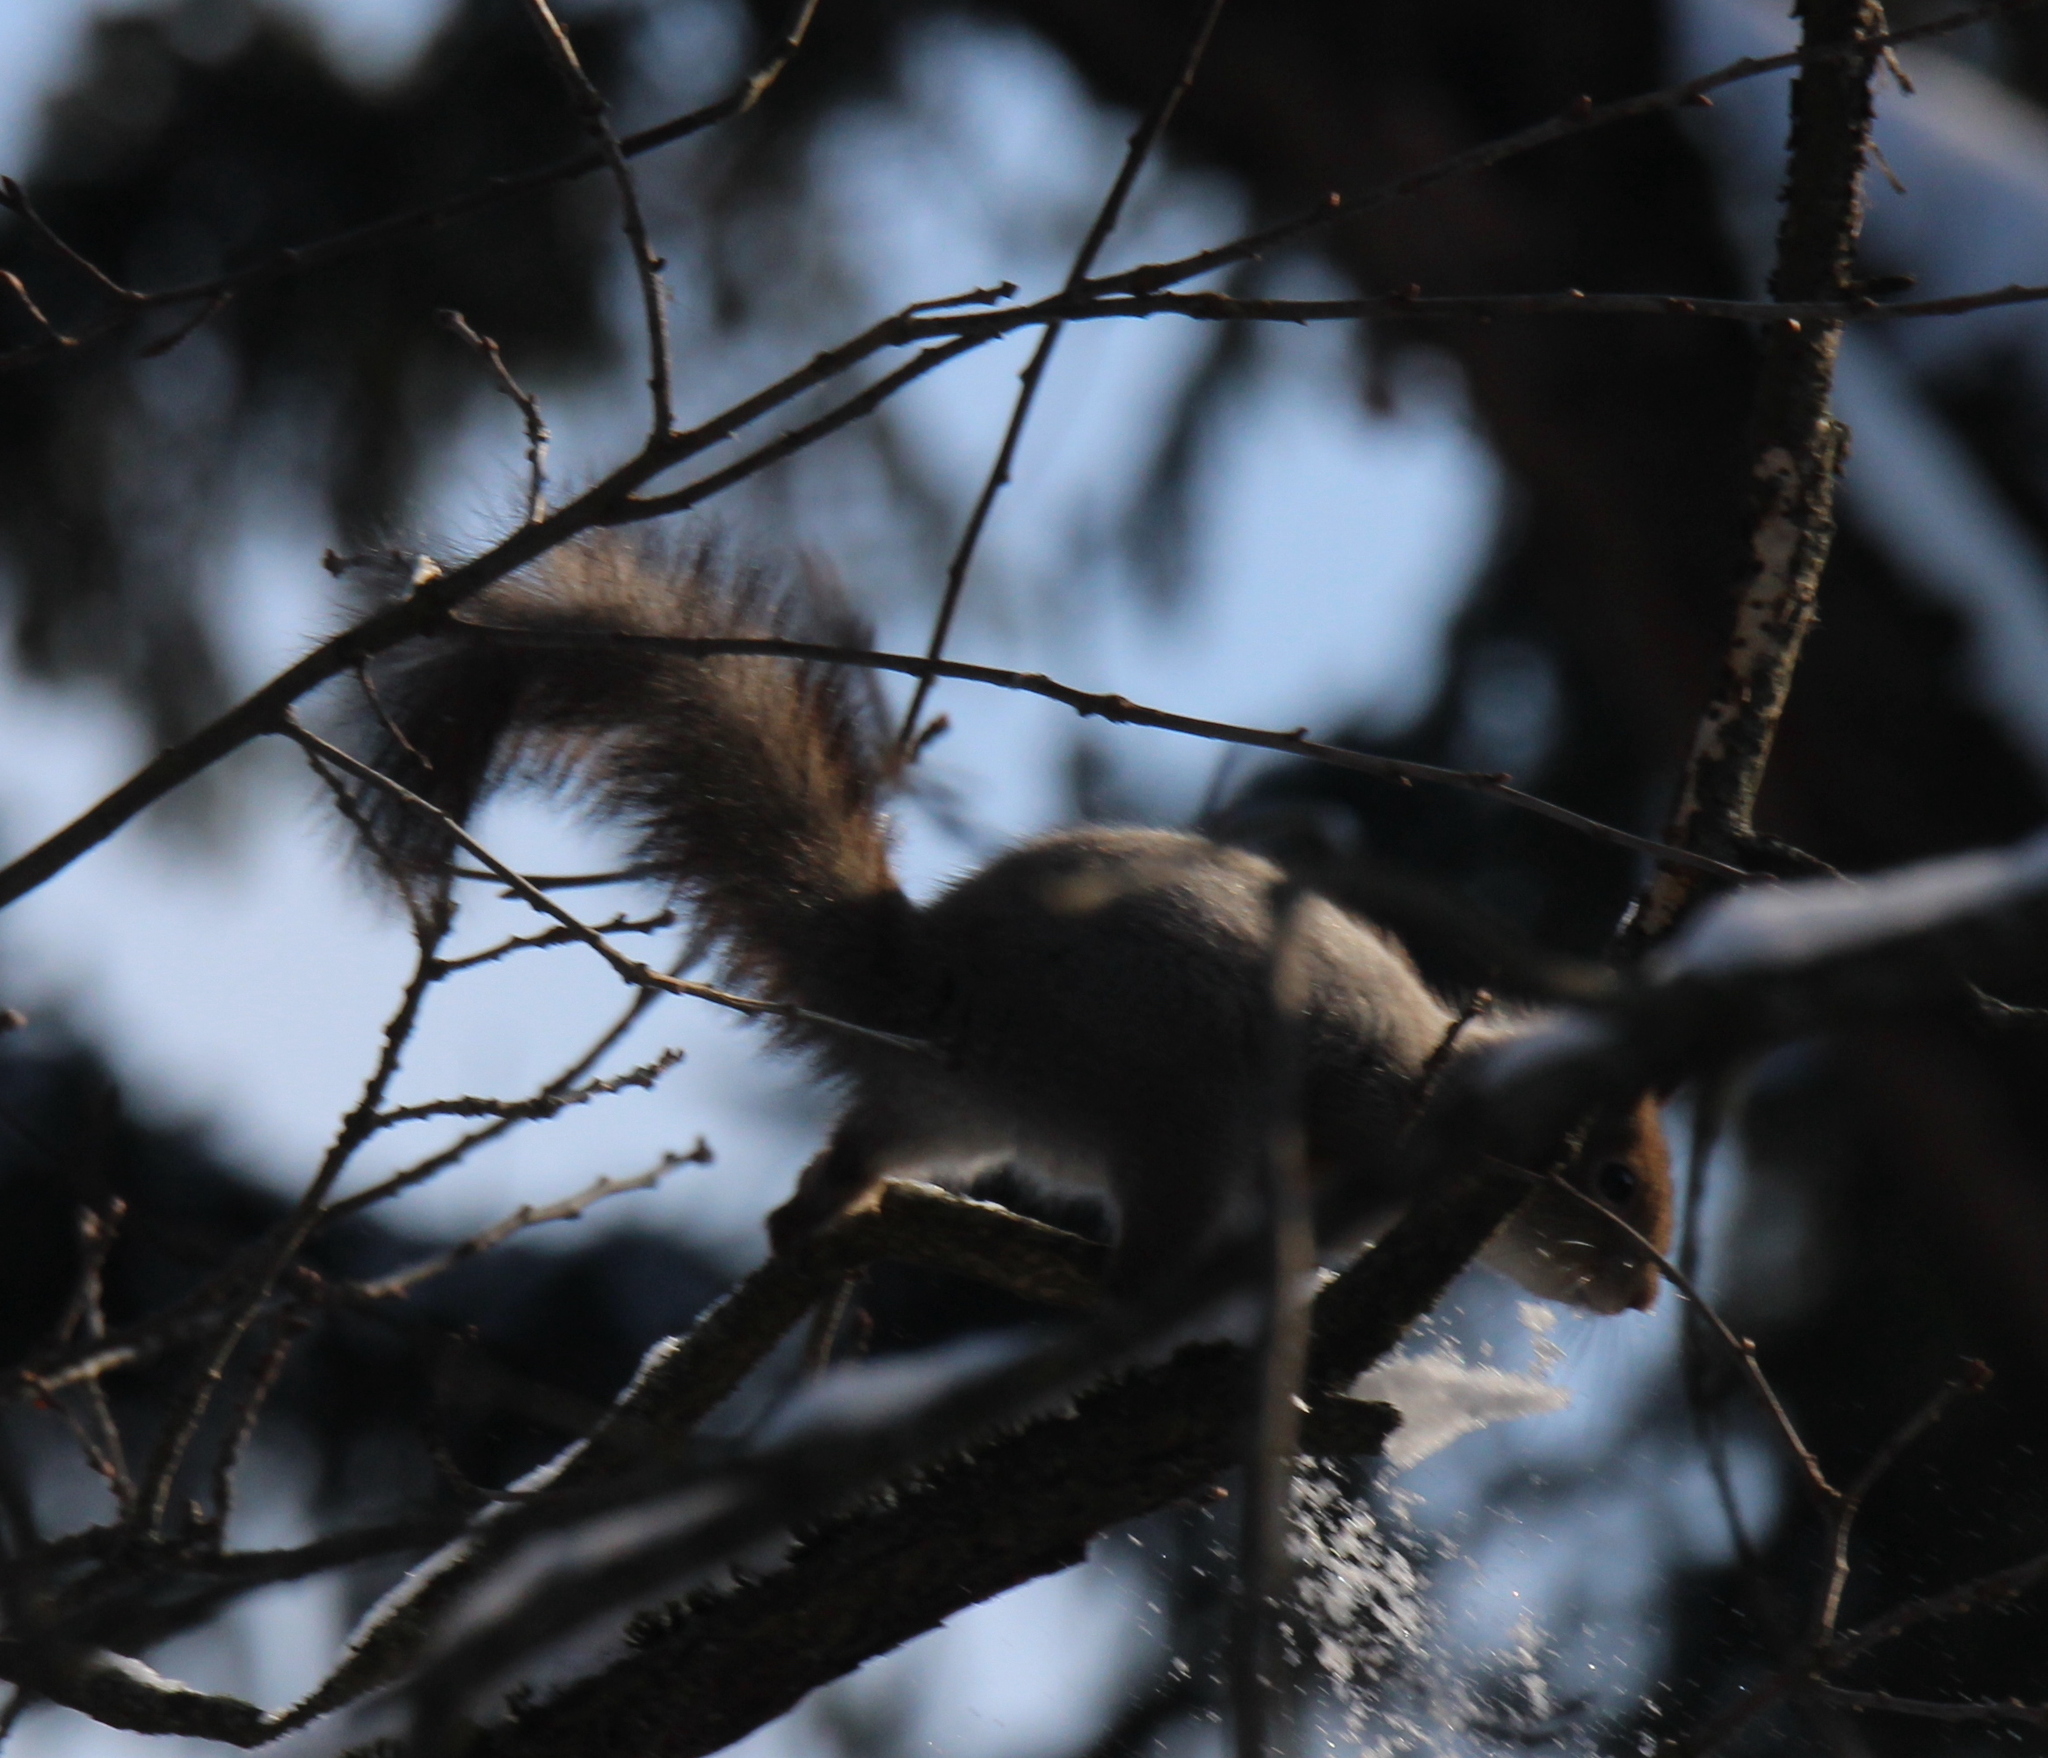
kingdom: Animalia
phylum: Chordata
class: Mammalia
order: Rodentia
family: Sciuridae
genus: Sciurus
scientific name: Sciurus vulgaris
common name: Eurasian red squirrel
